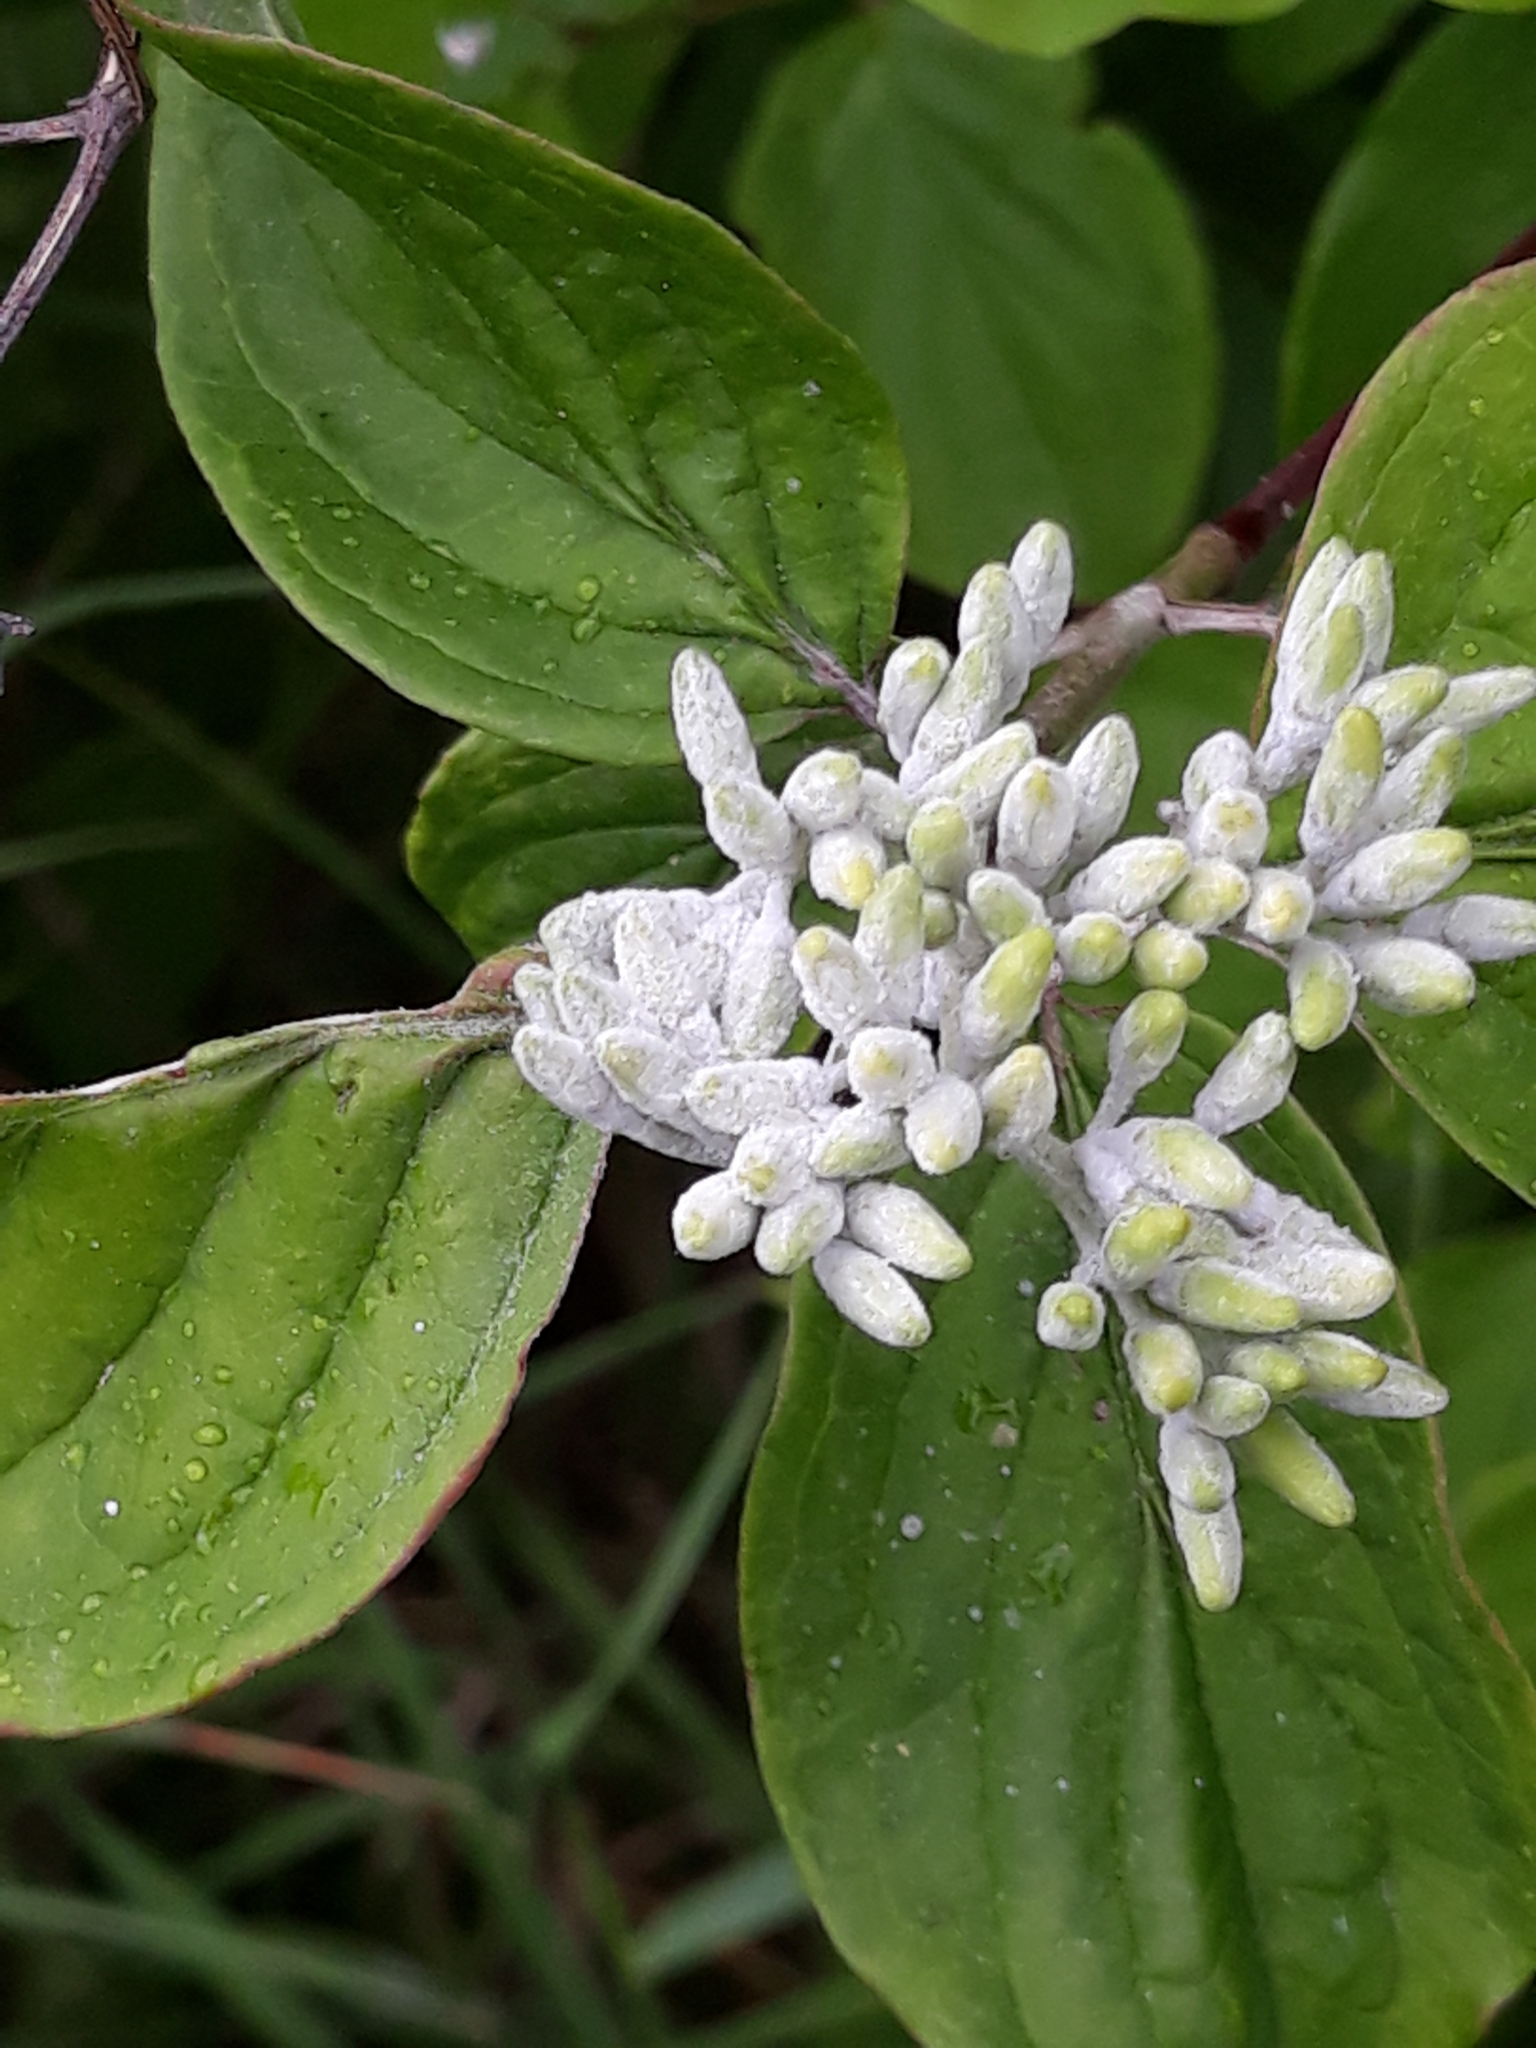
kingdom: Plantae
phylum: Tracheophyta
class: Magnoliopsida
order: Cornales
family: Cornaceae
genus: Cornus
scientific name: Cornus sanguinea
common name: Dogwood
